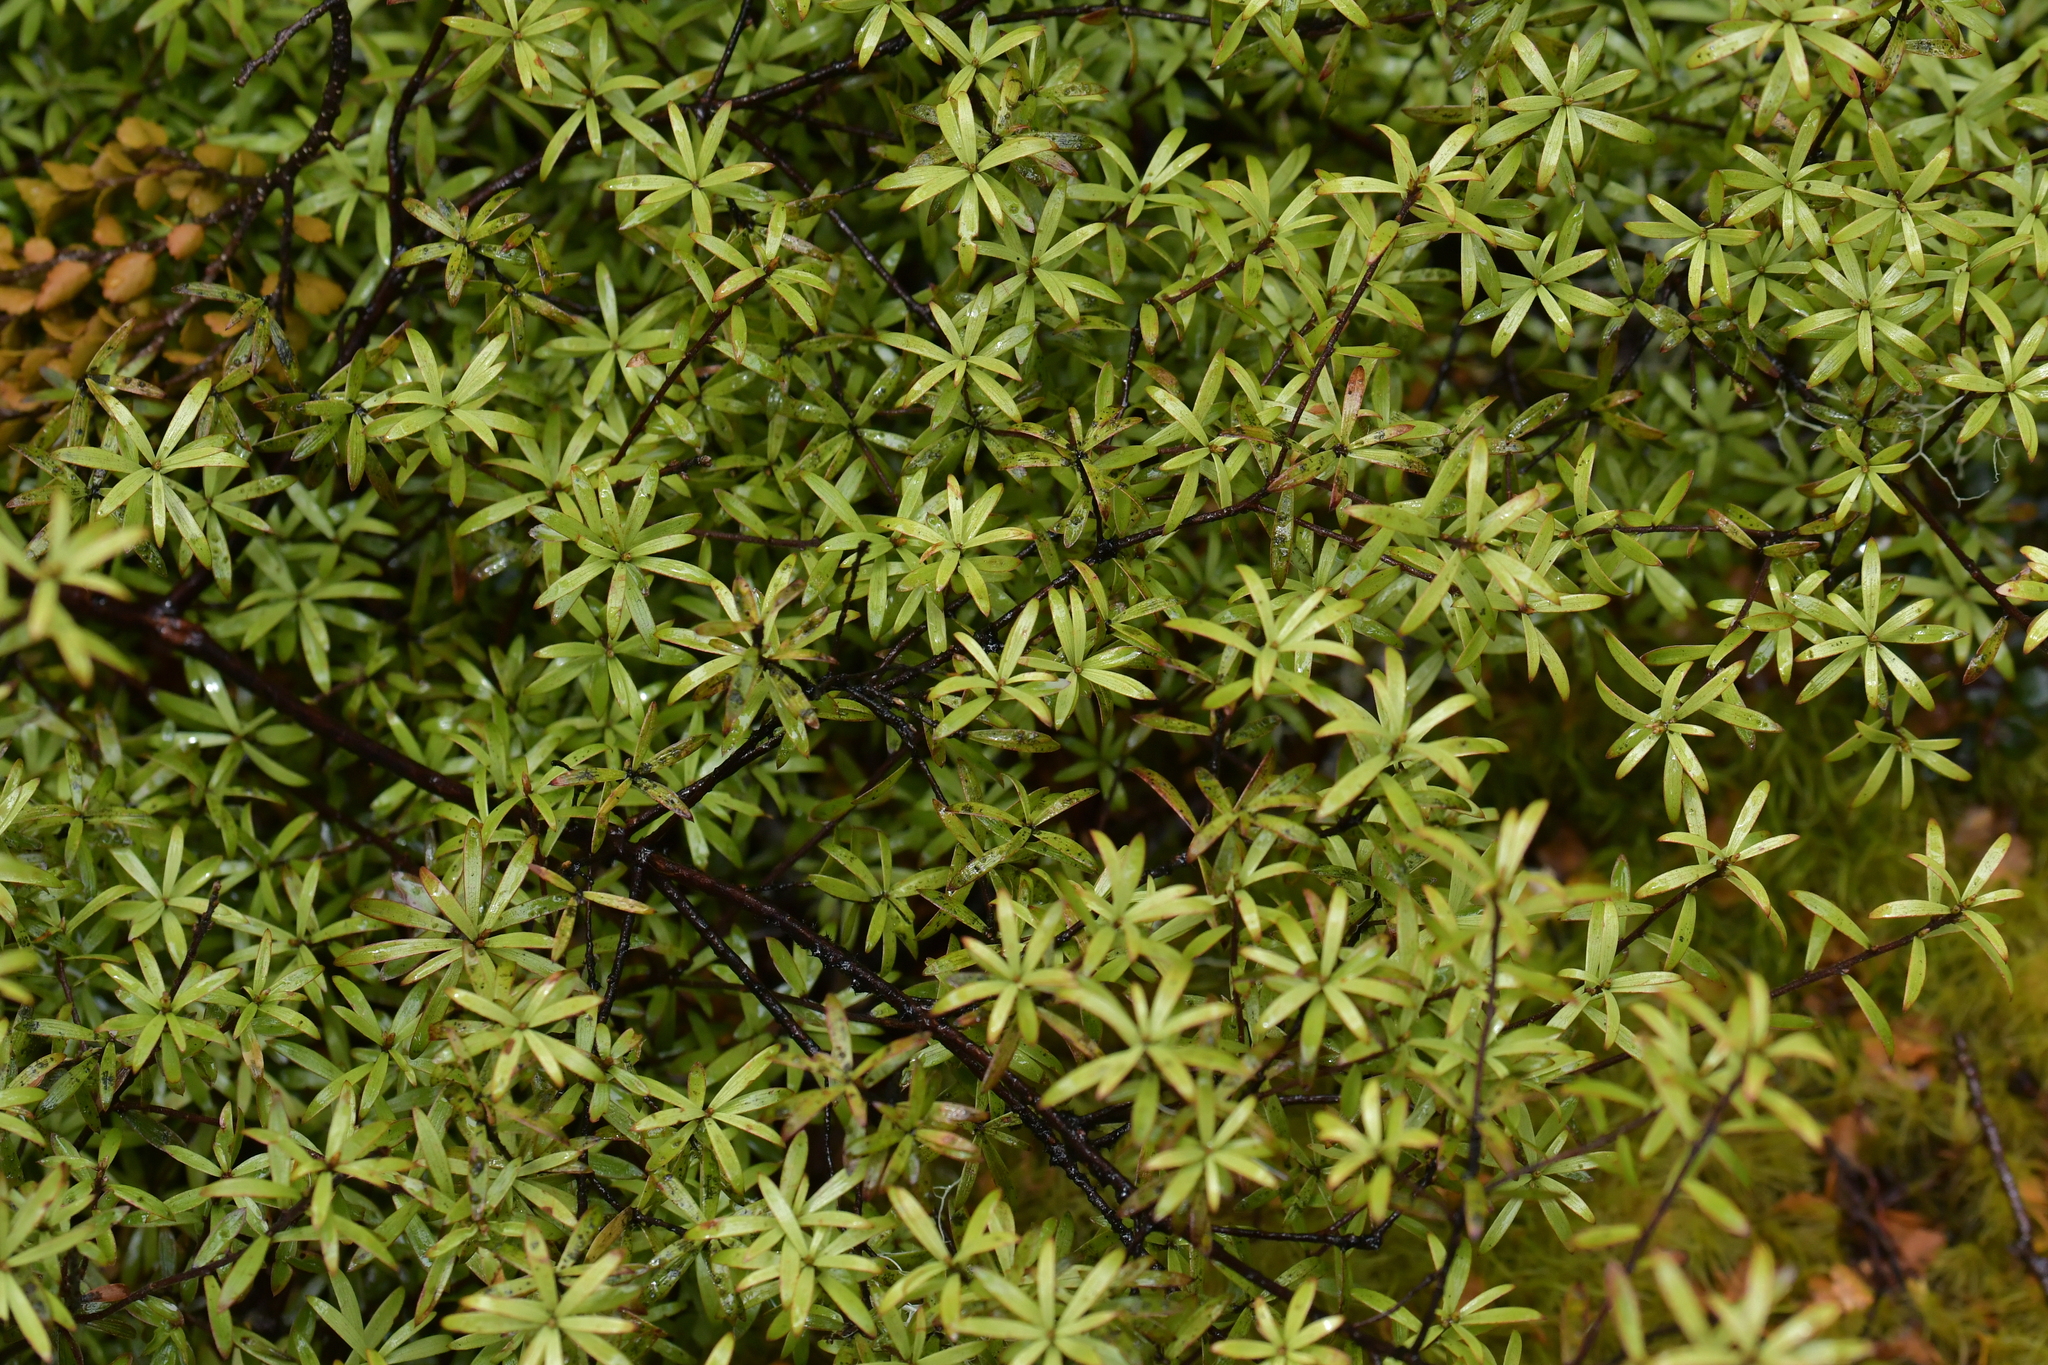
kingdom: Plantae
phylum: Tracheophyta
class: Magnoliopsida
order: Ericales
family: Ericaceae
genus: Leucopogon
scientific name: Leucopogon fasciculatus
